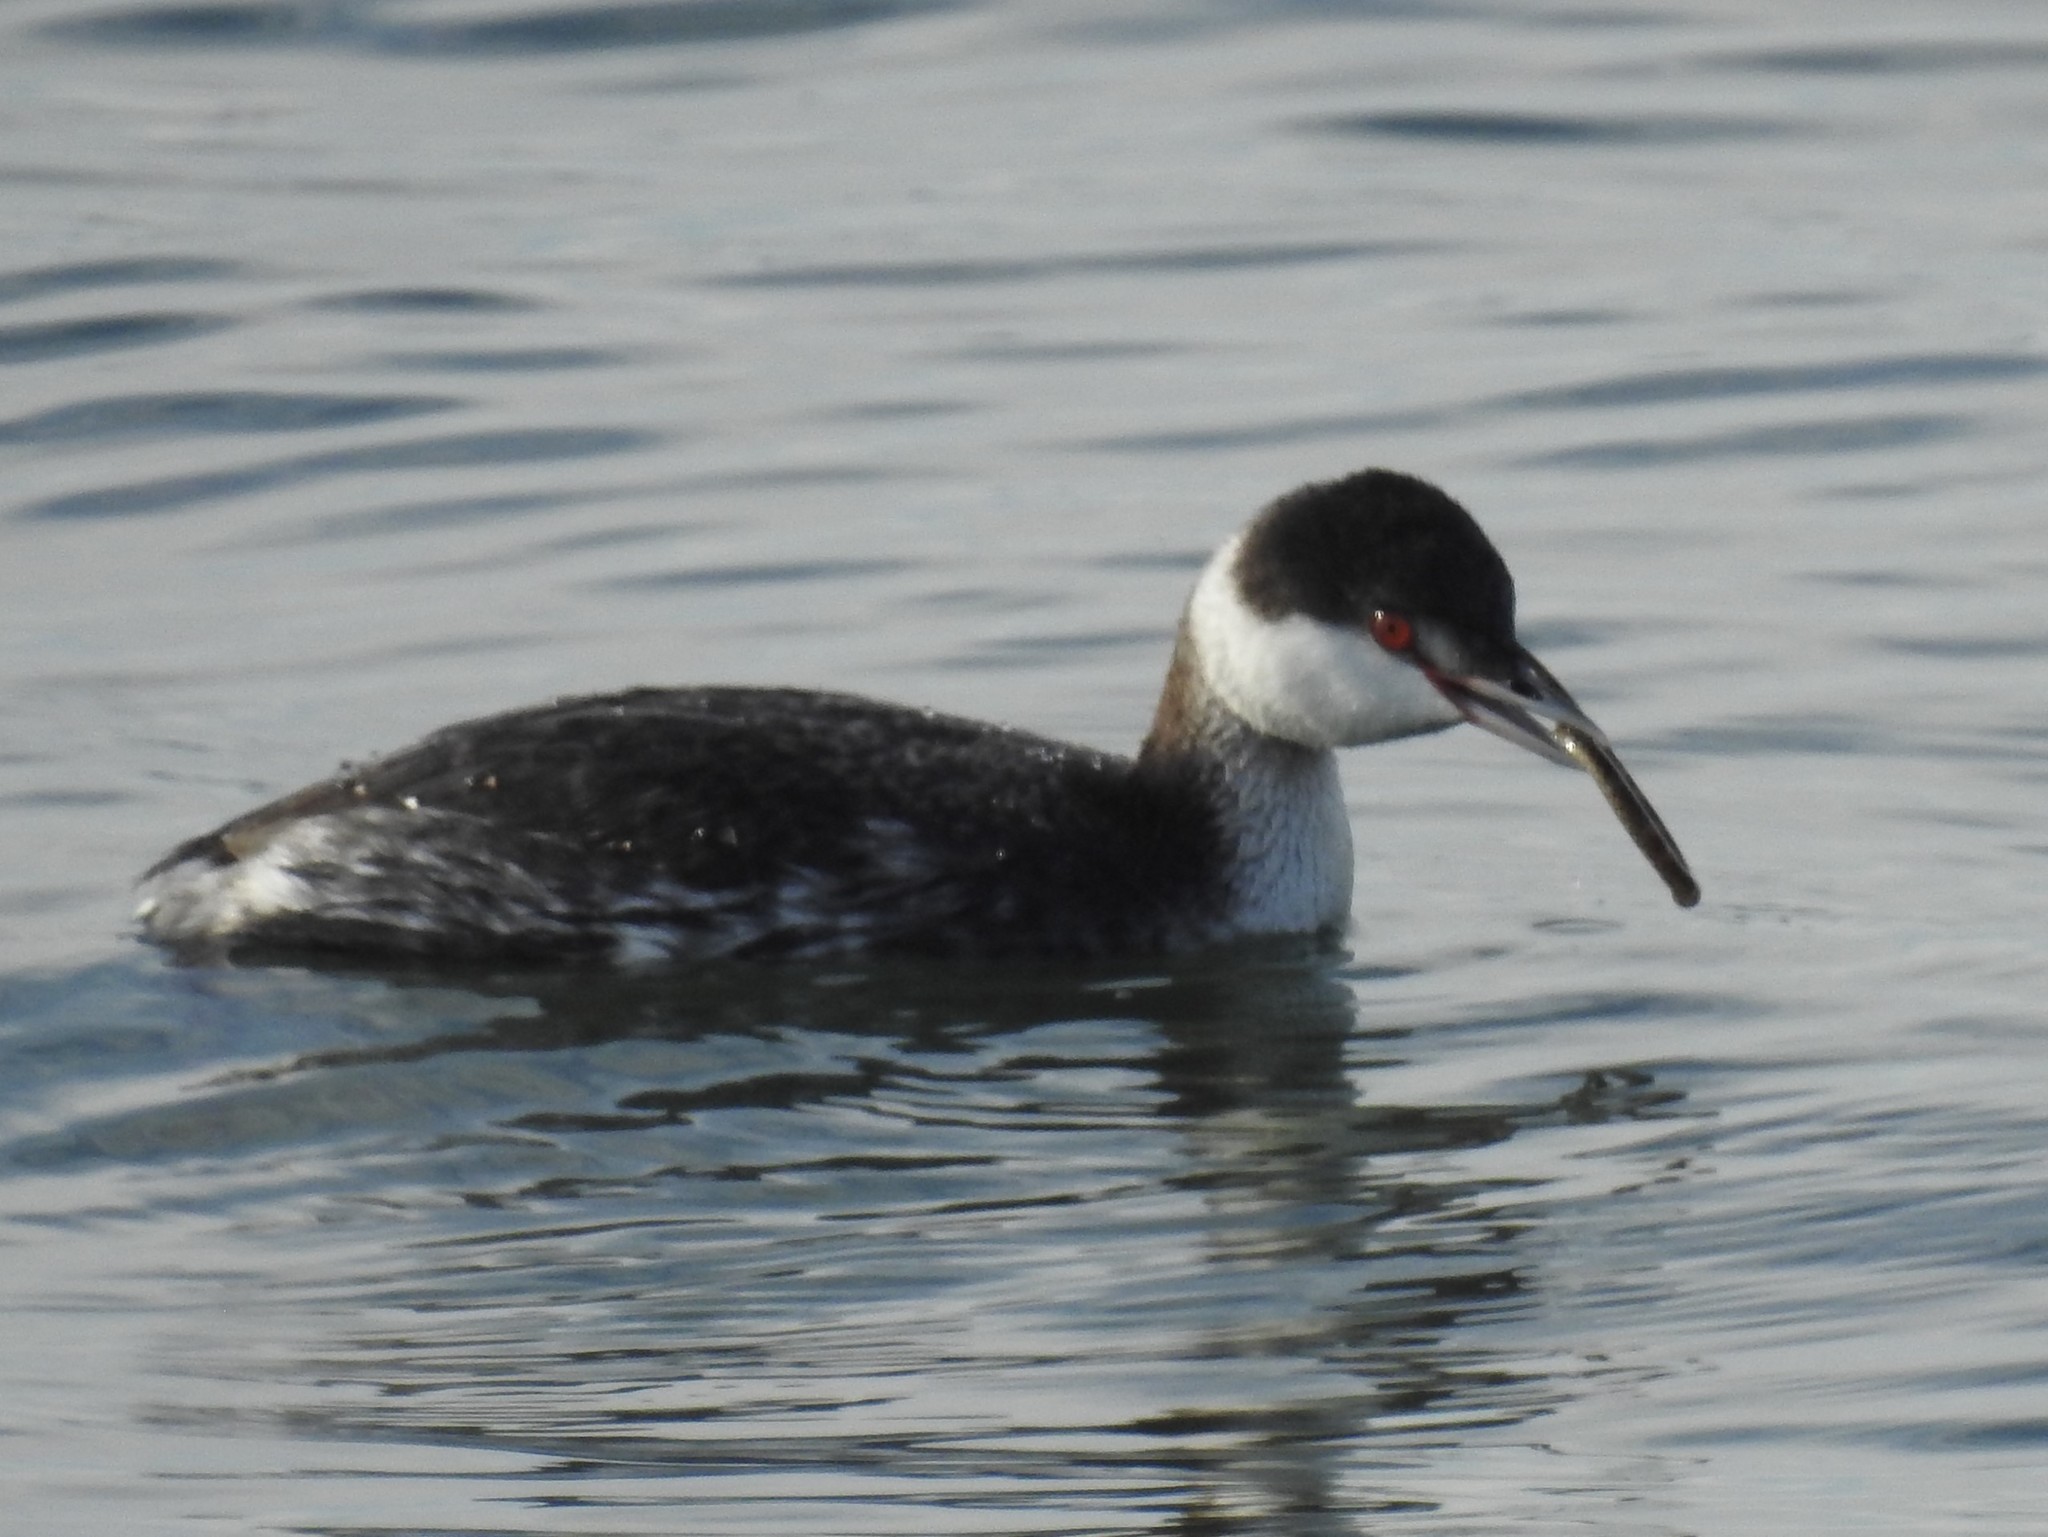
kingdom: Animalia
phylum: Chordata
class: Aves
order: Podicipediformes
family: Podicipedidae
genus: Podiceps
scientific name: Podiceps auritus
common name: Horned grebe
